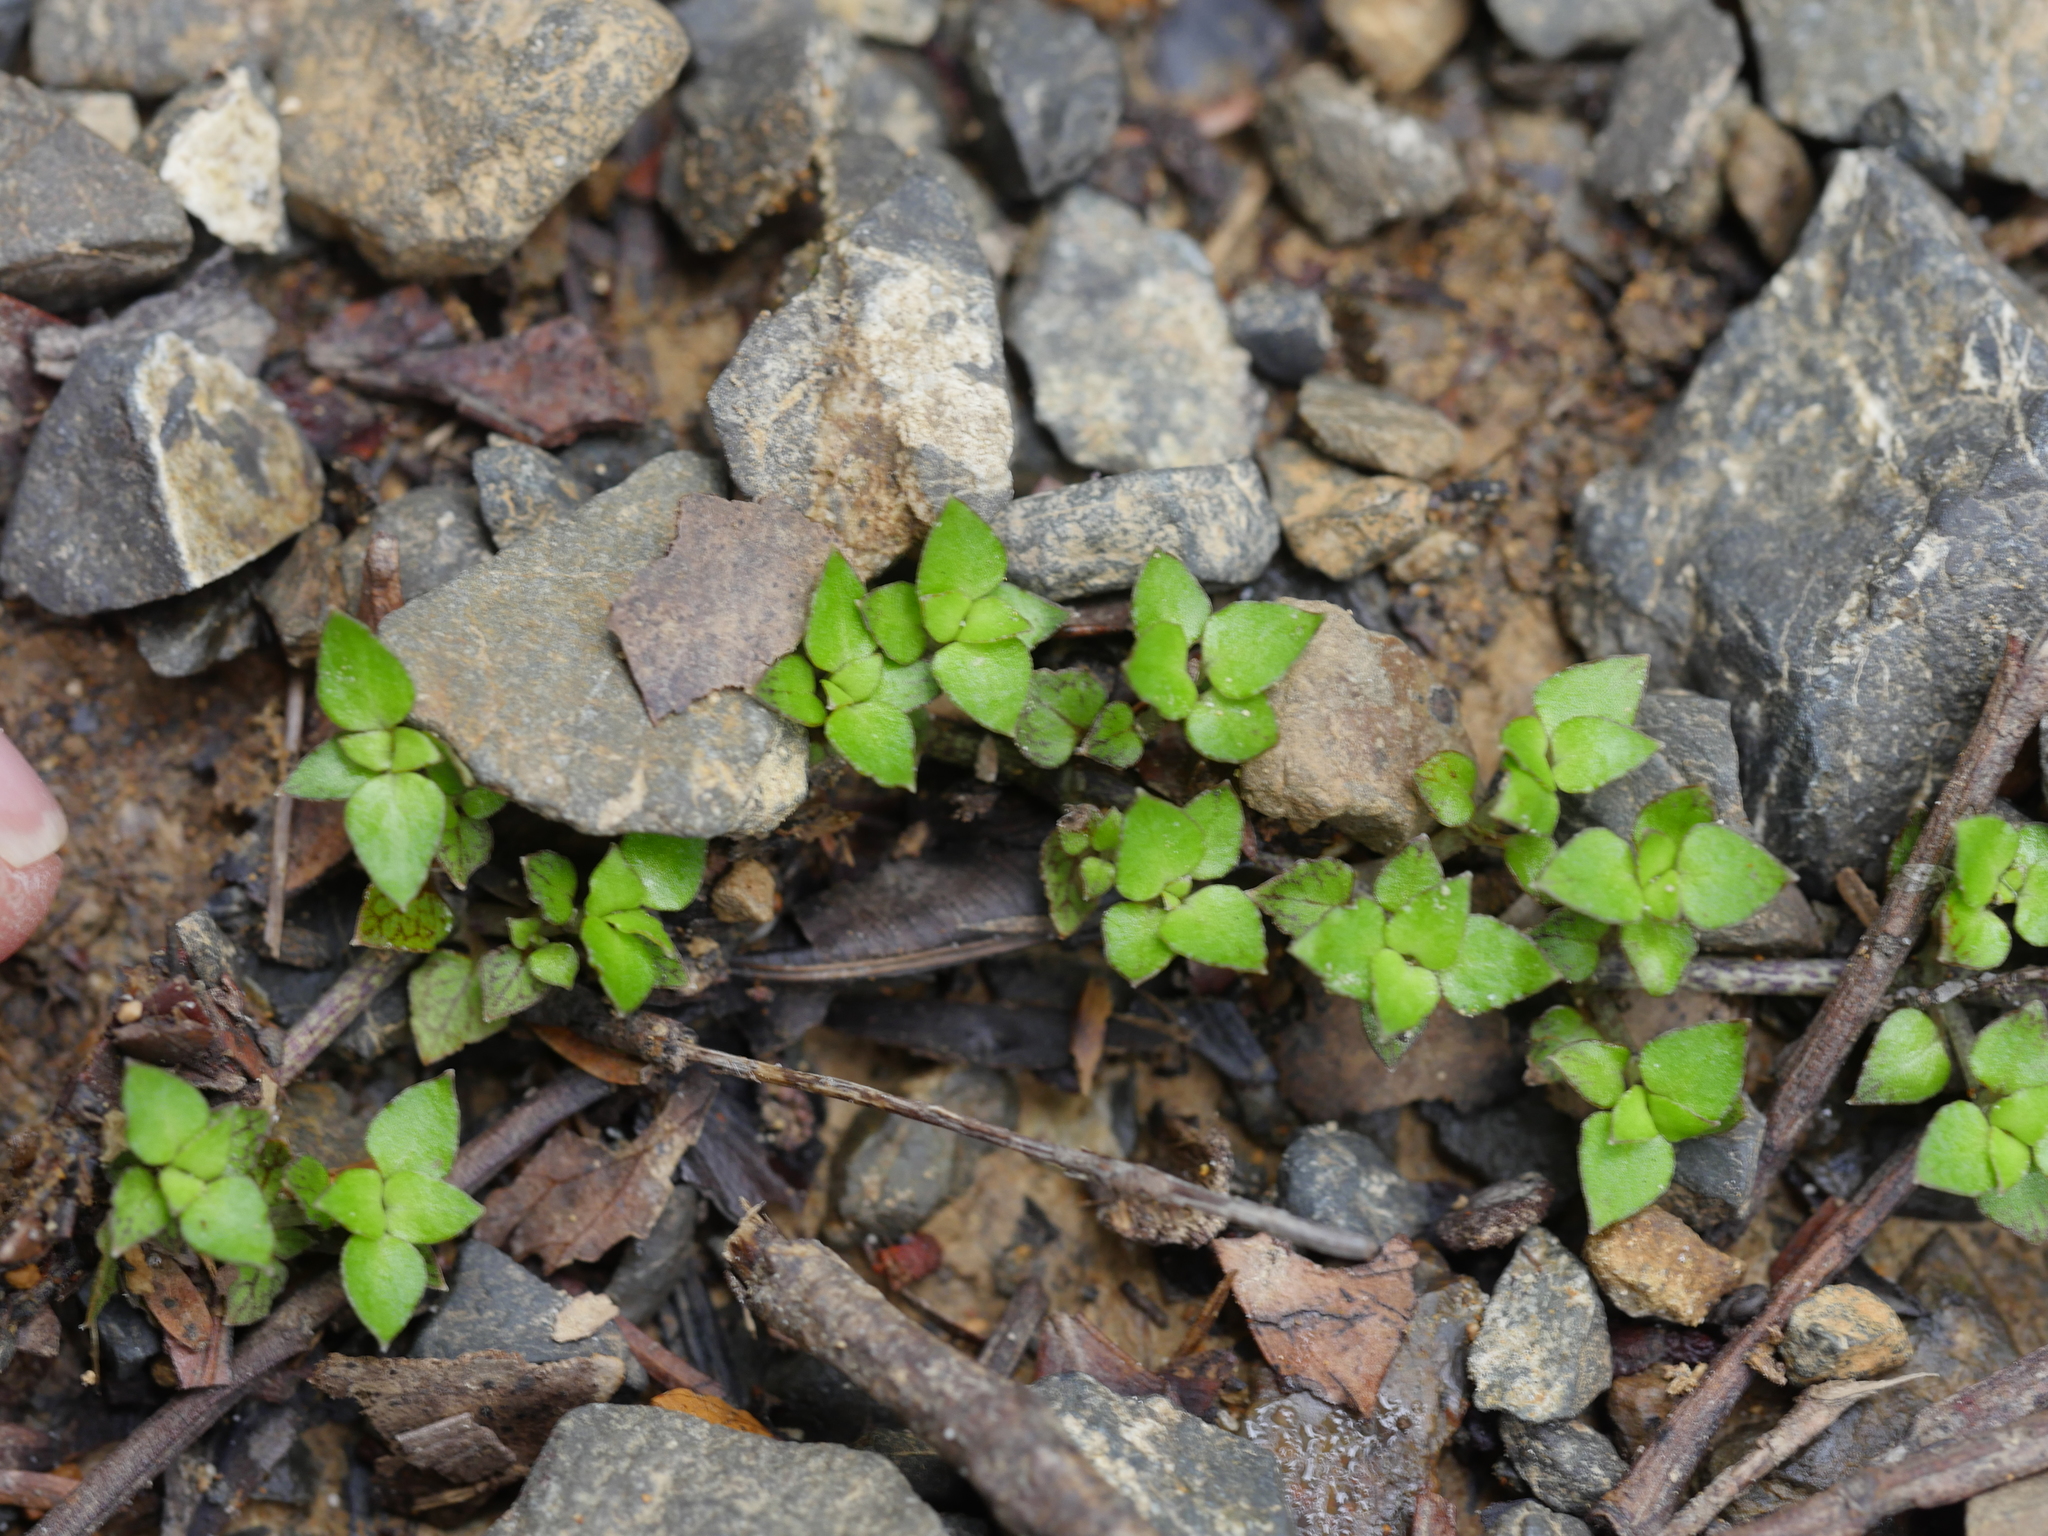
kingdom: Plantae
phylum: Tracheophyta
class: Magnoliopsida
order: Gentianales
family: Rubiaceae
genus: Nertera
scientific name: Nertera granadensis
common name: Beadplant
